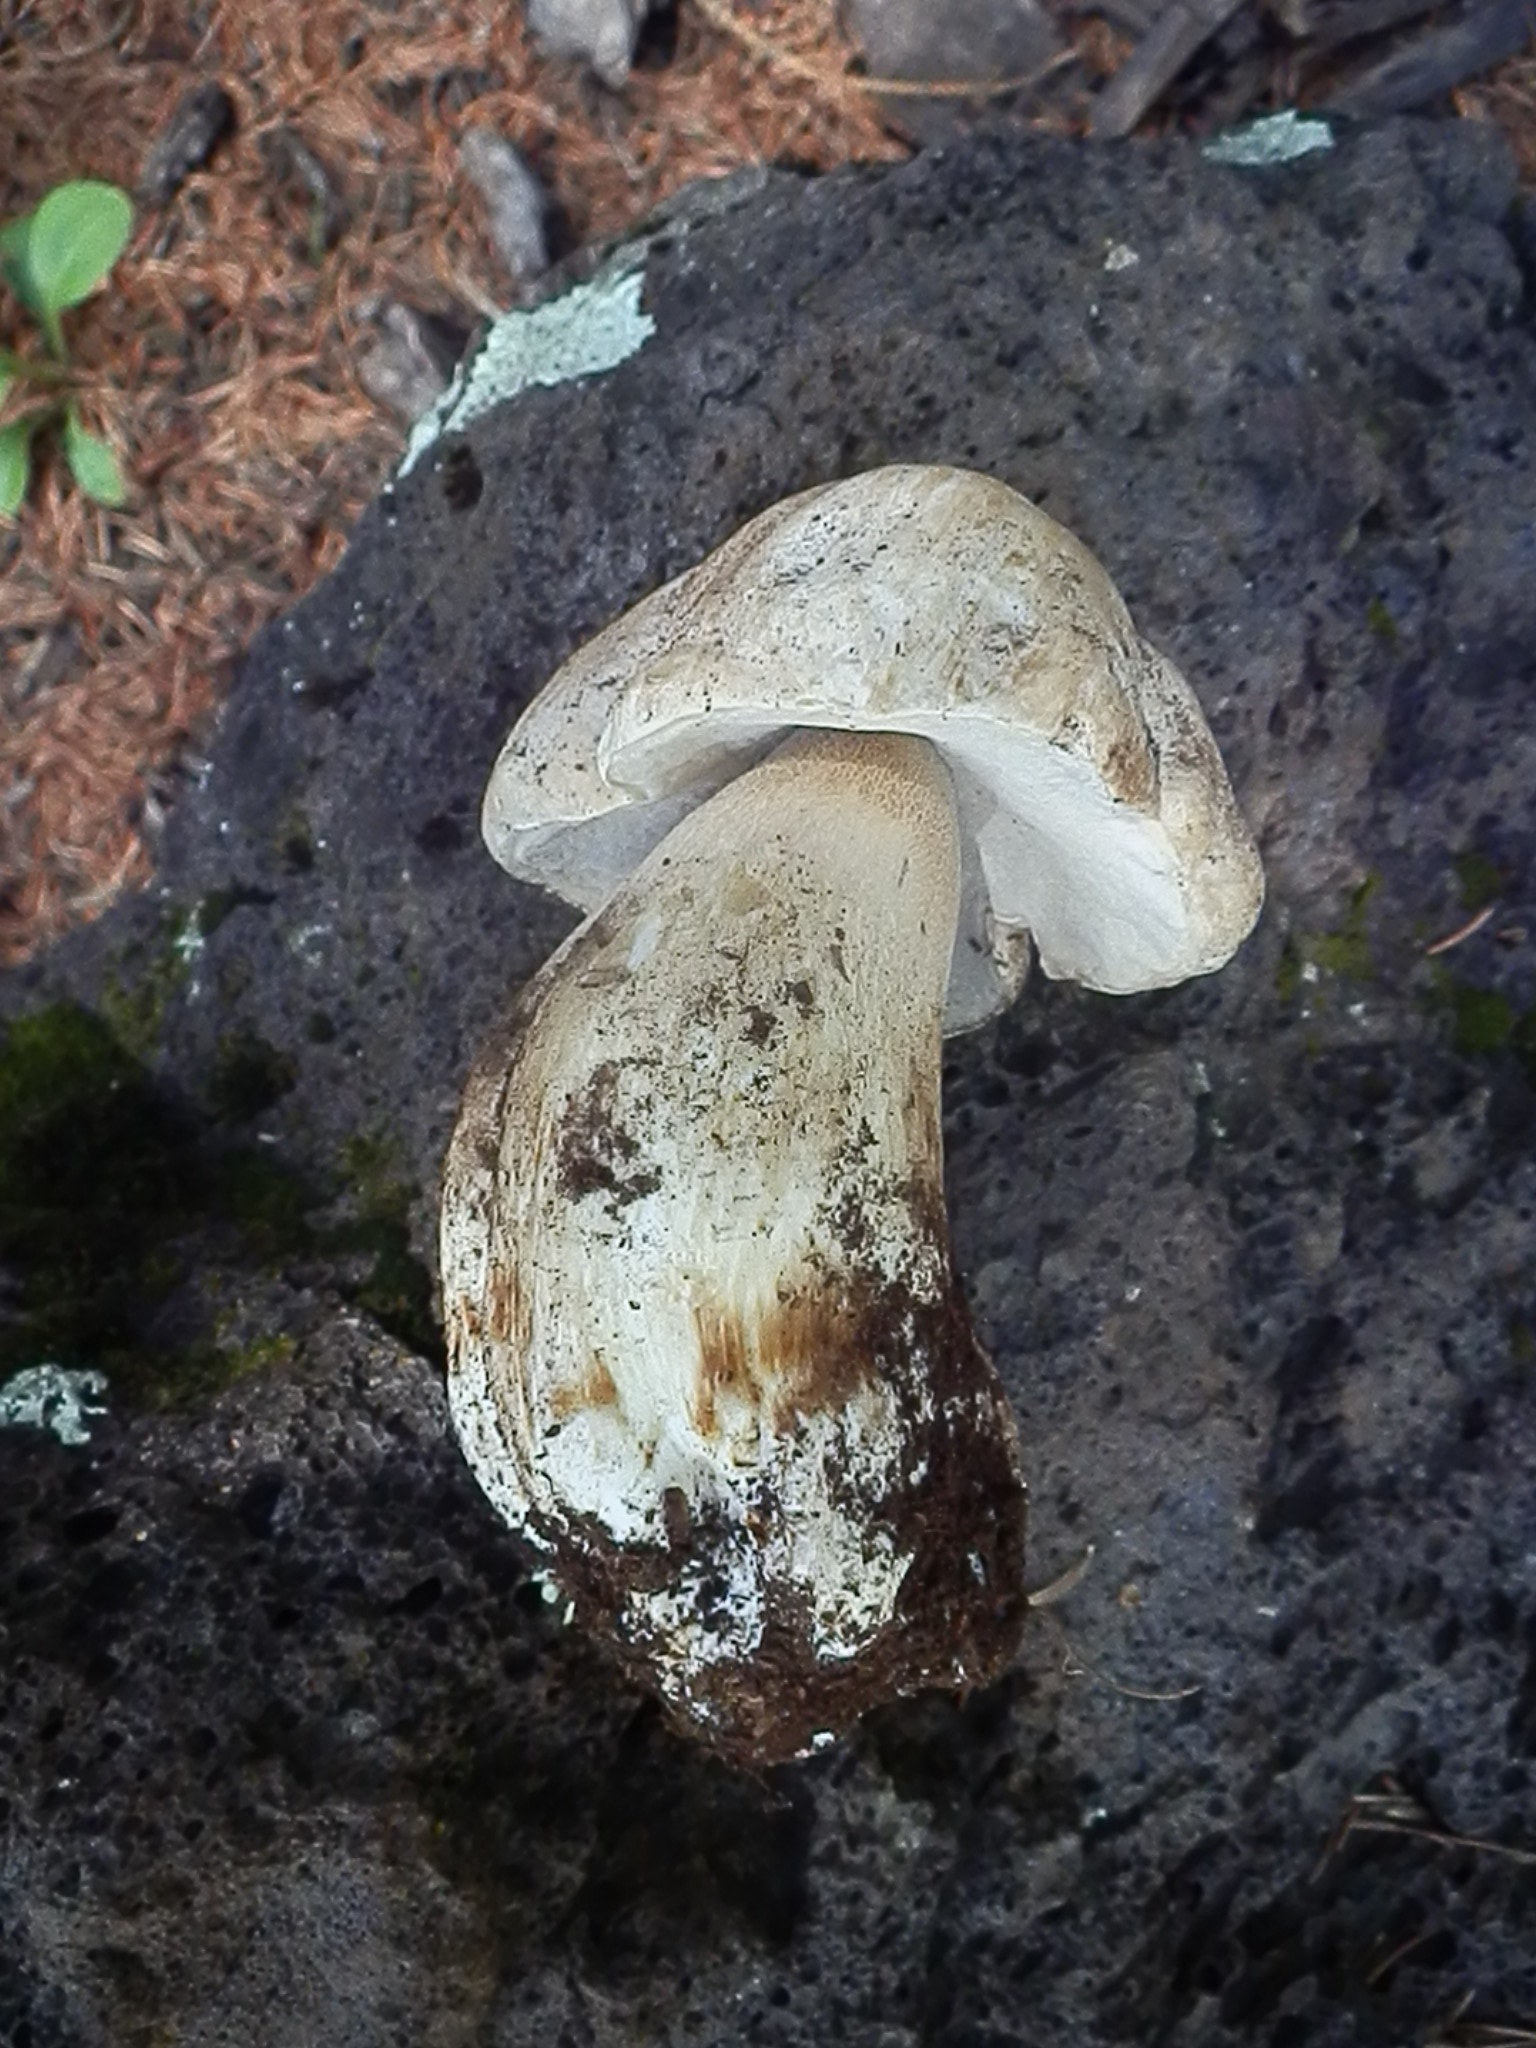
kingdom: Fungi
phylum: Basidiomycota
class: Agaricomycetes
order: Boletales
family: Boletaceae
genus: Boletus
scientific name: Boletus barrowsii
